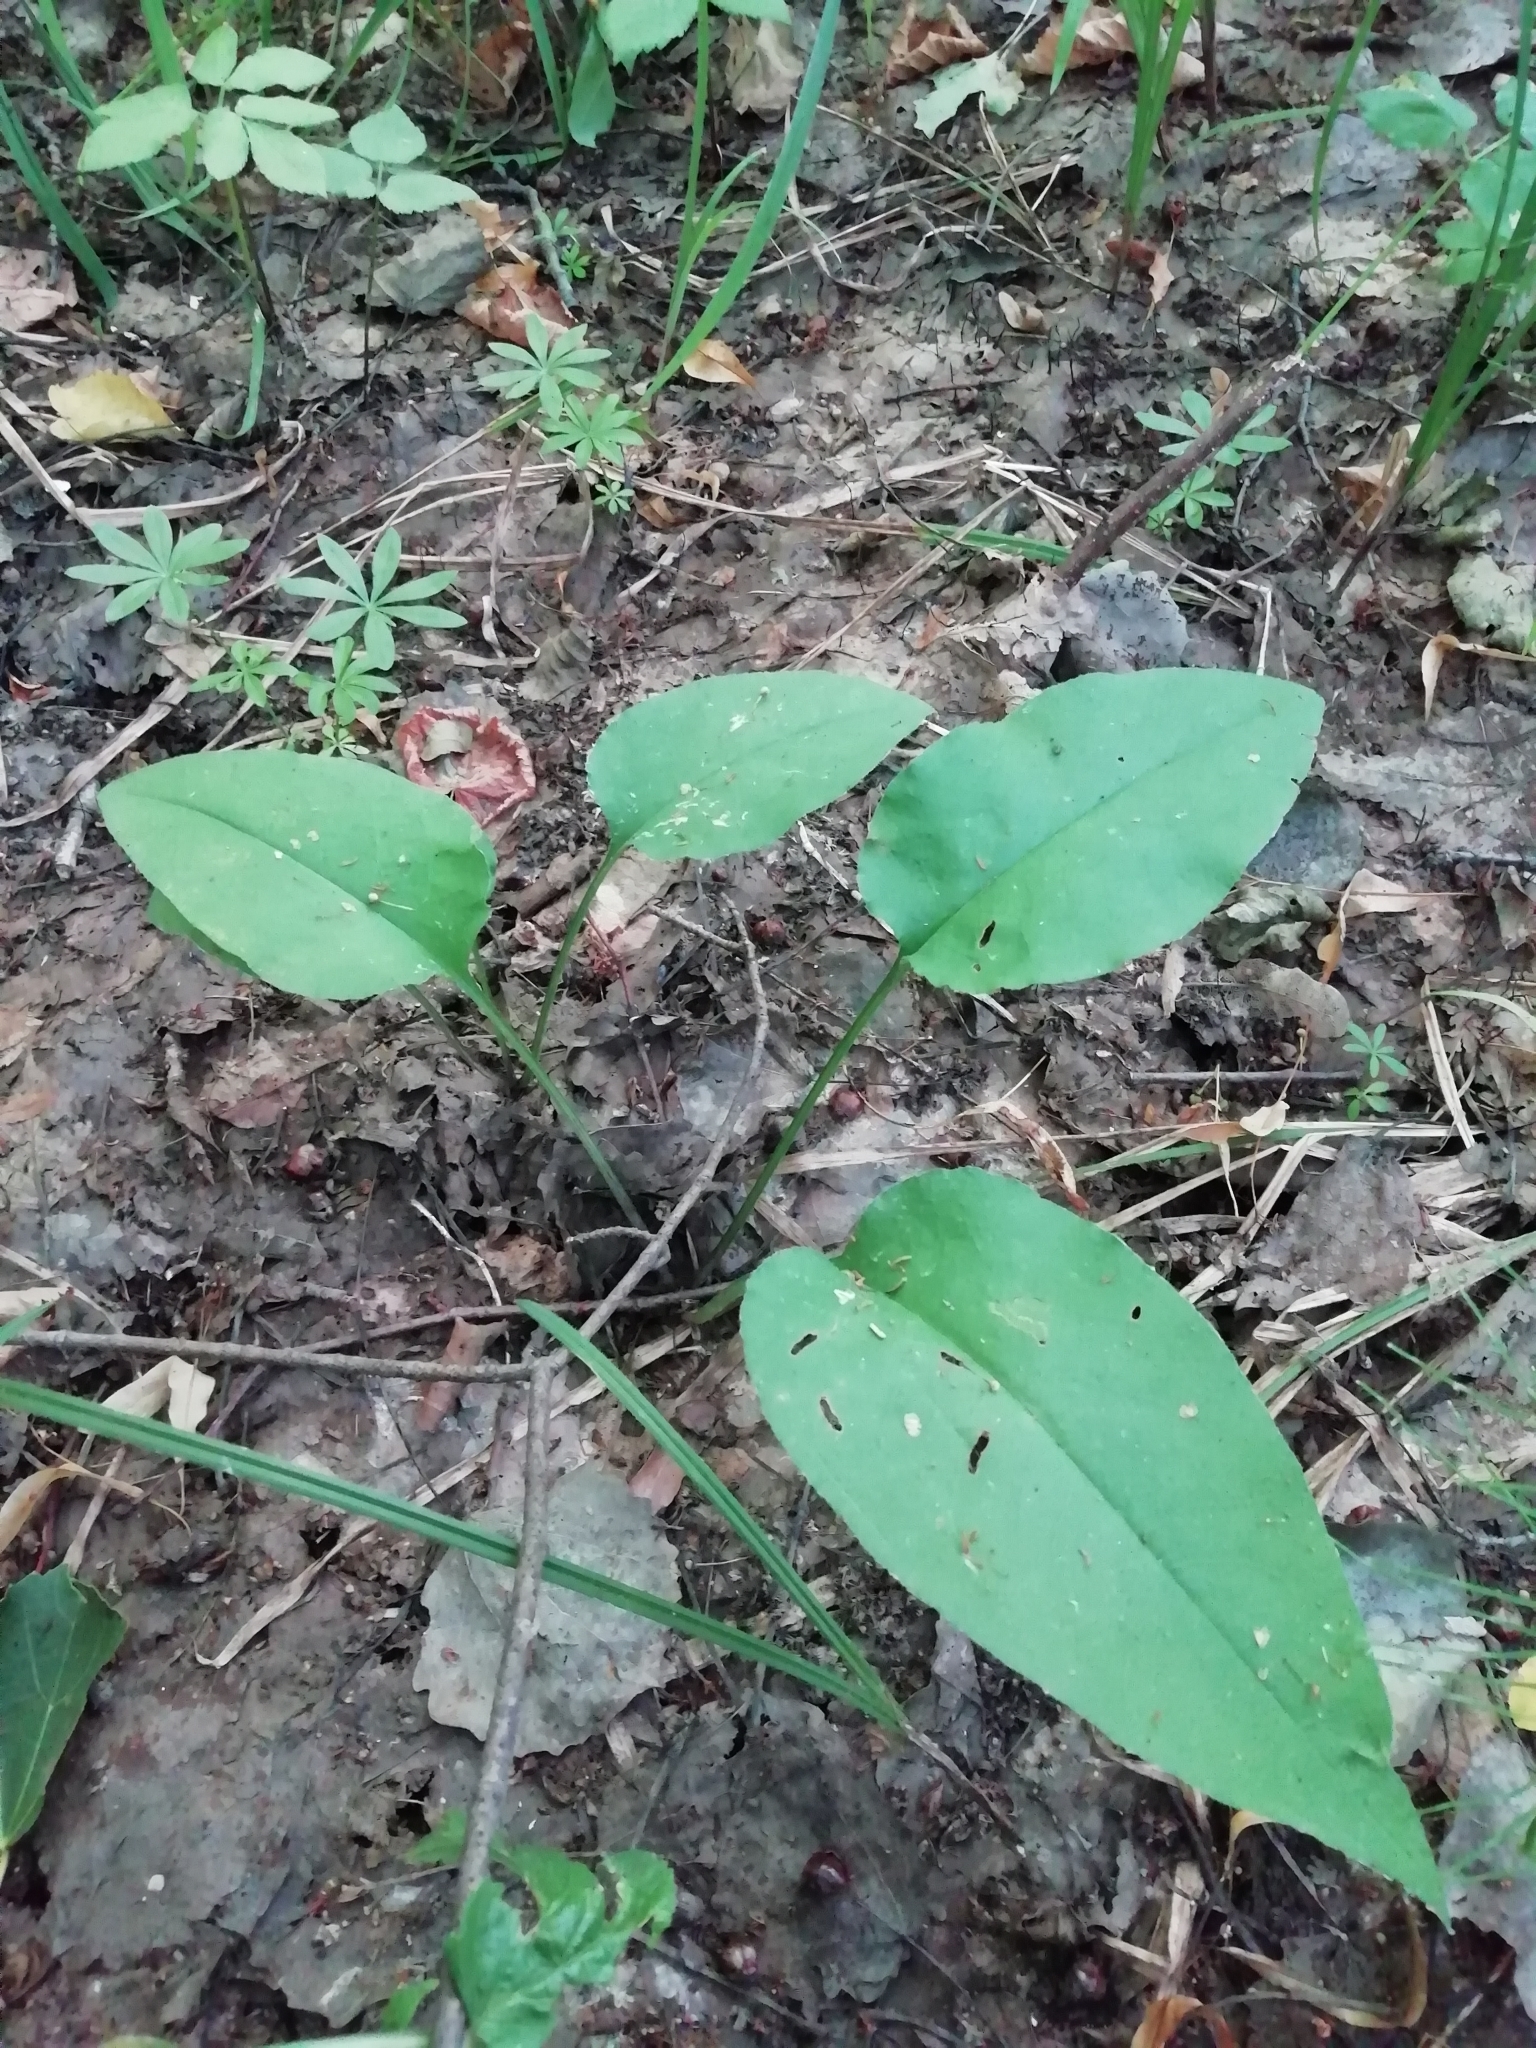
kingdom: Plantae
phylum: Tracheophyta
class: Magnoliopsida
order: Boraginales
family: Boraginaceae
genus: Pulmonaria
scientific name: Pulmonaria obscura
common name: Suffolk lungwort
